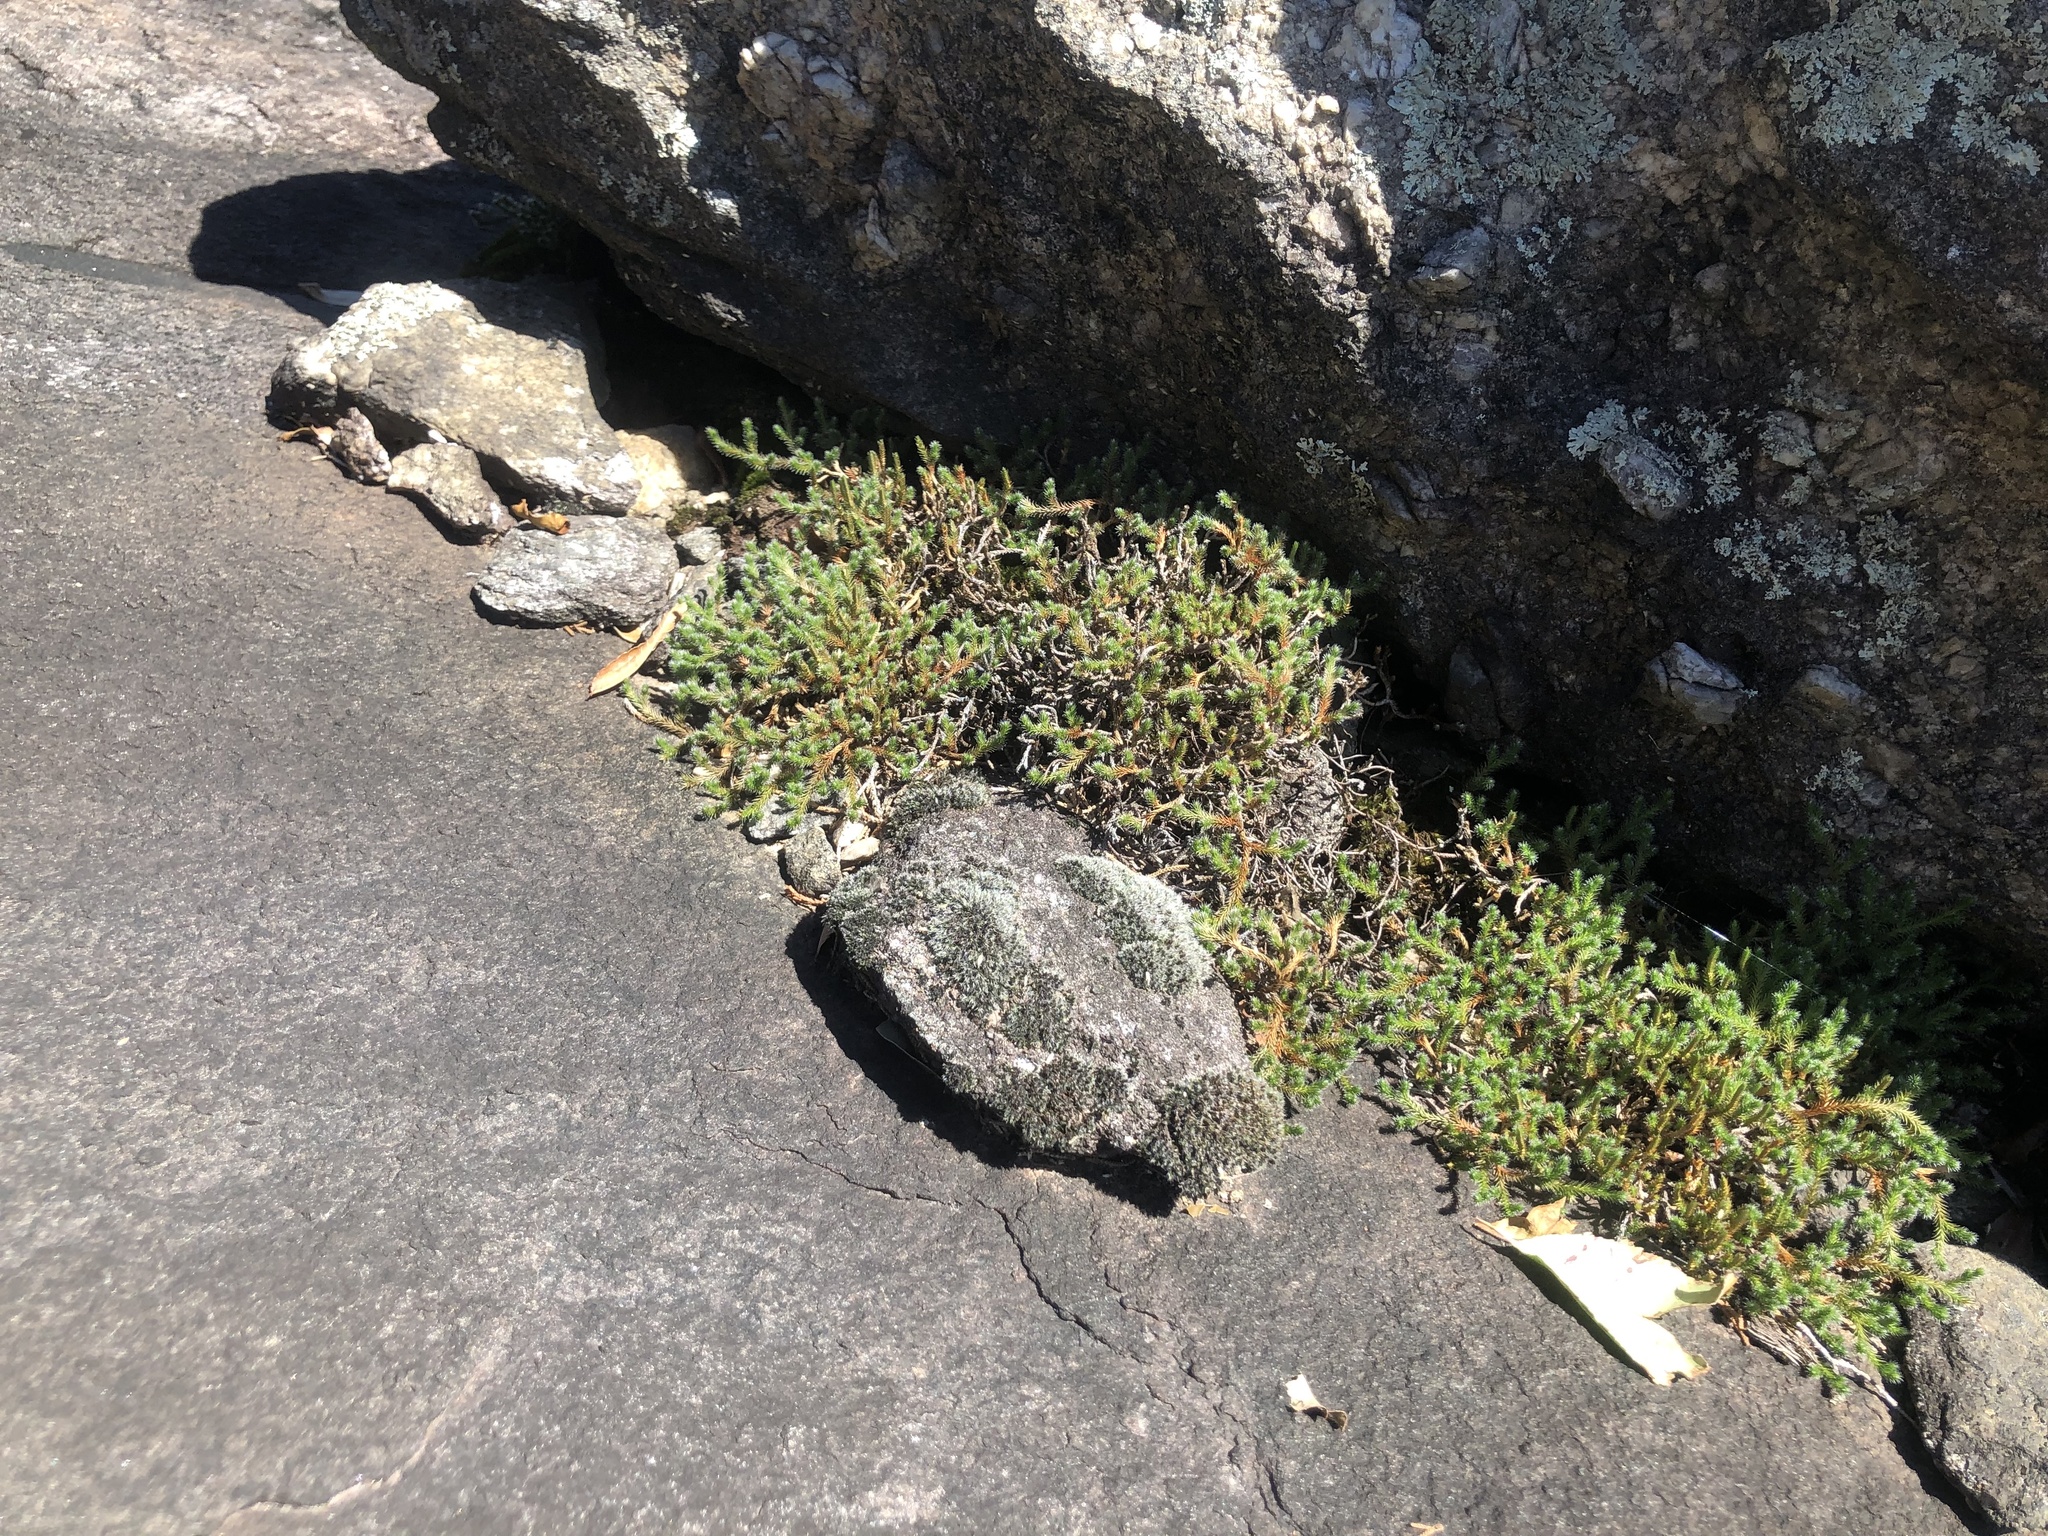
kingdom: Plantae
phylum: Tracheophyta
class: Lycopodiopsida
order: Selaginellales
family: Selaginellaceae
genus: Selaginella
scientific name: Selaginella rupestris
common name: Dwarf spikemoss
